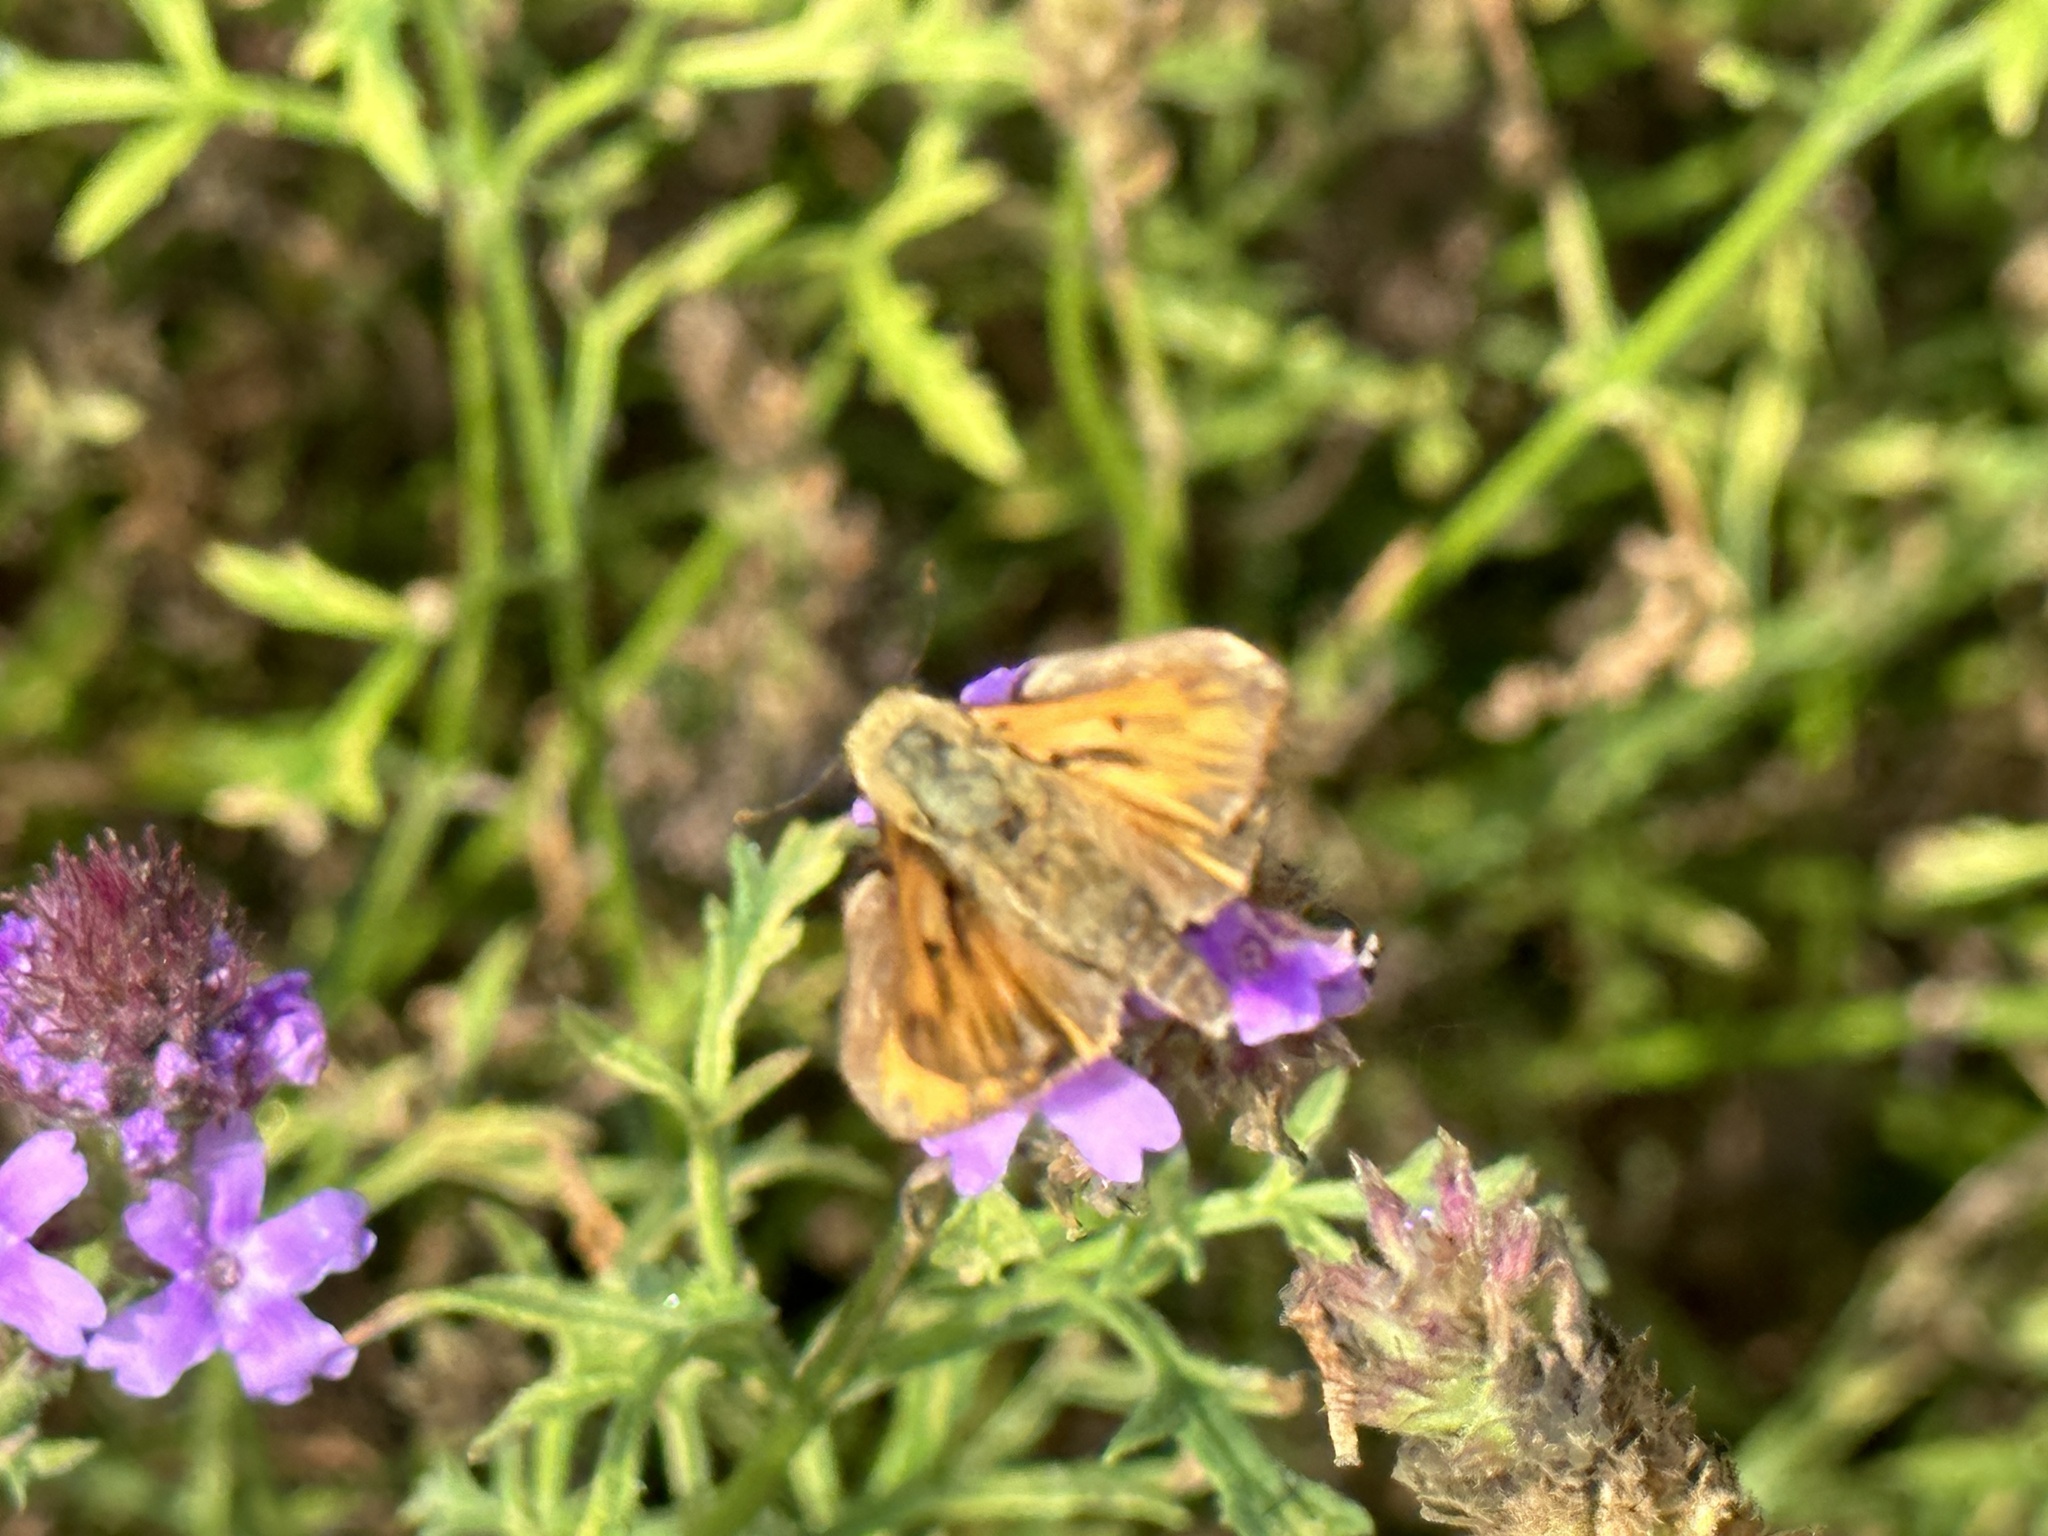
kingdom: Animalia
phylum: Arthropoda
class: Insecta
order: Lepidoptera
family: Hesperiidae
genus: Hylephila
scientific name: Hylephila phyleus
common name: Fiery skipper
